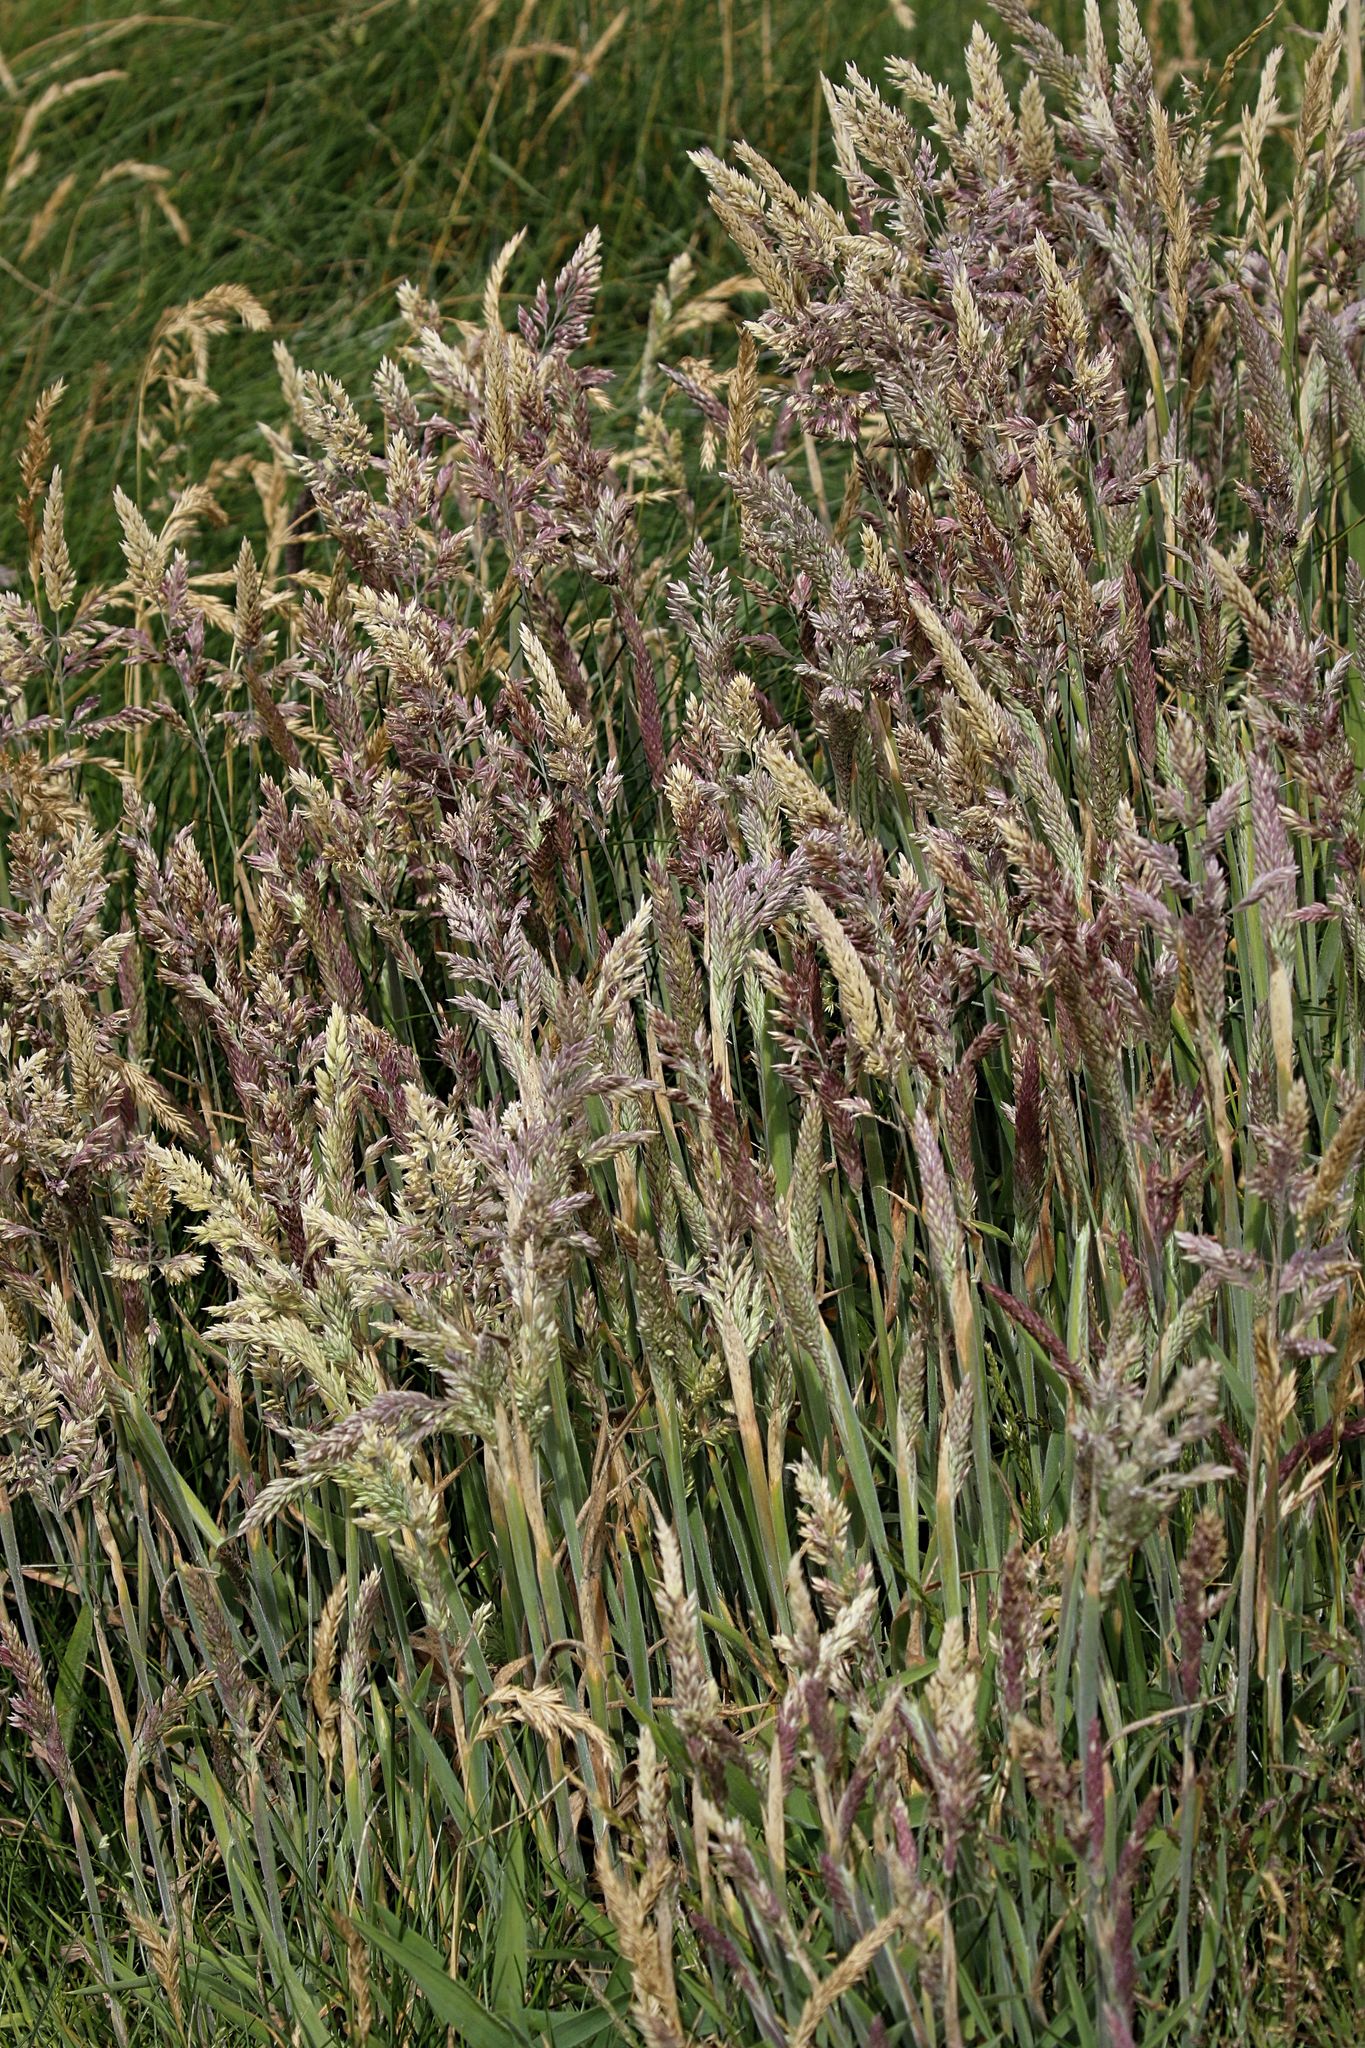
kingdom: Plantae
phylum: Tracheophyta
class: Liliopsida
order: Poales
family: Poaceae
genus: Holcus
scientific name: Holcus lanatus
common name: Yorkshire-fog
